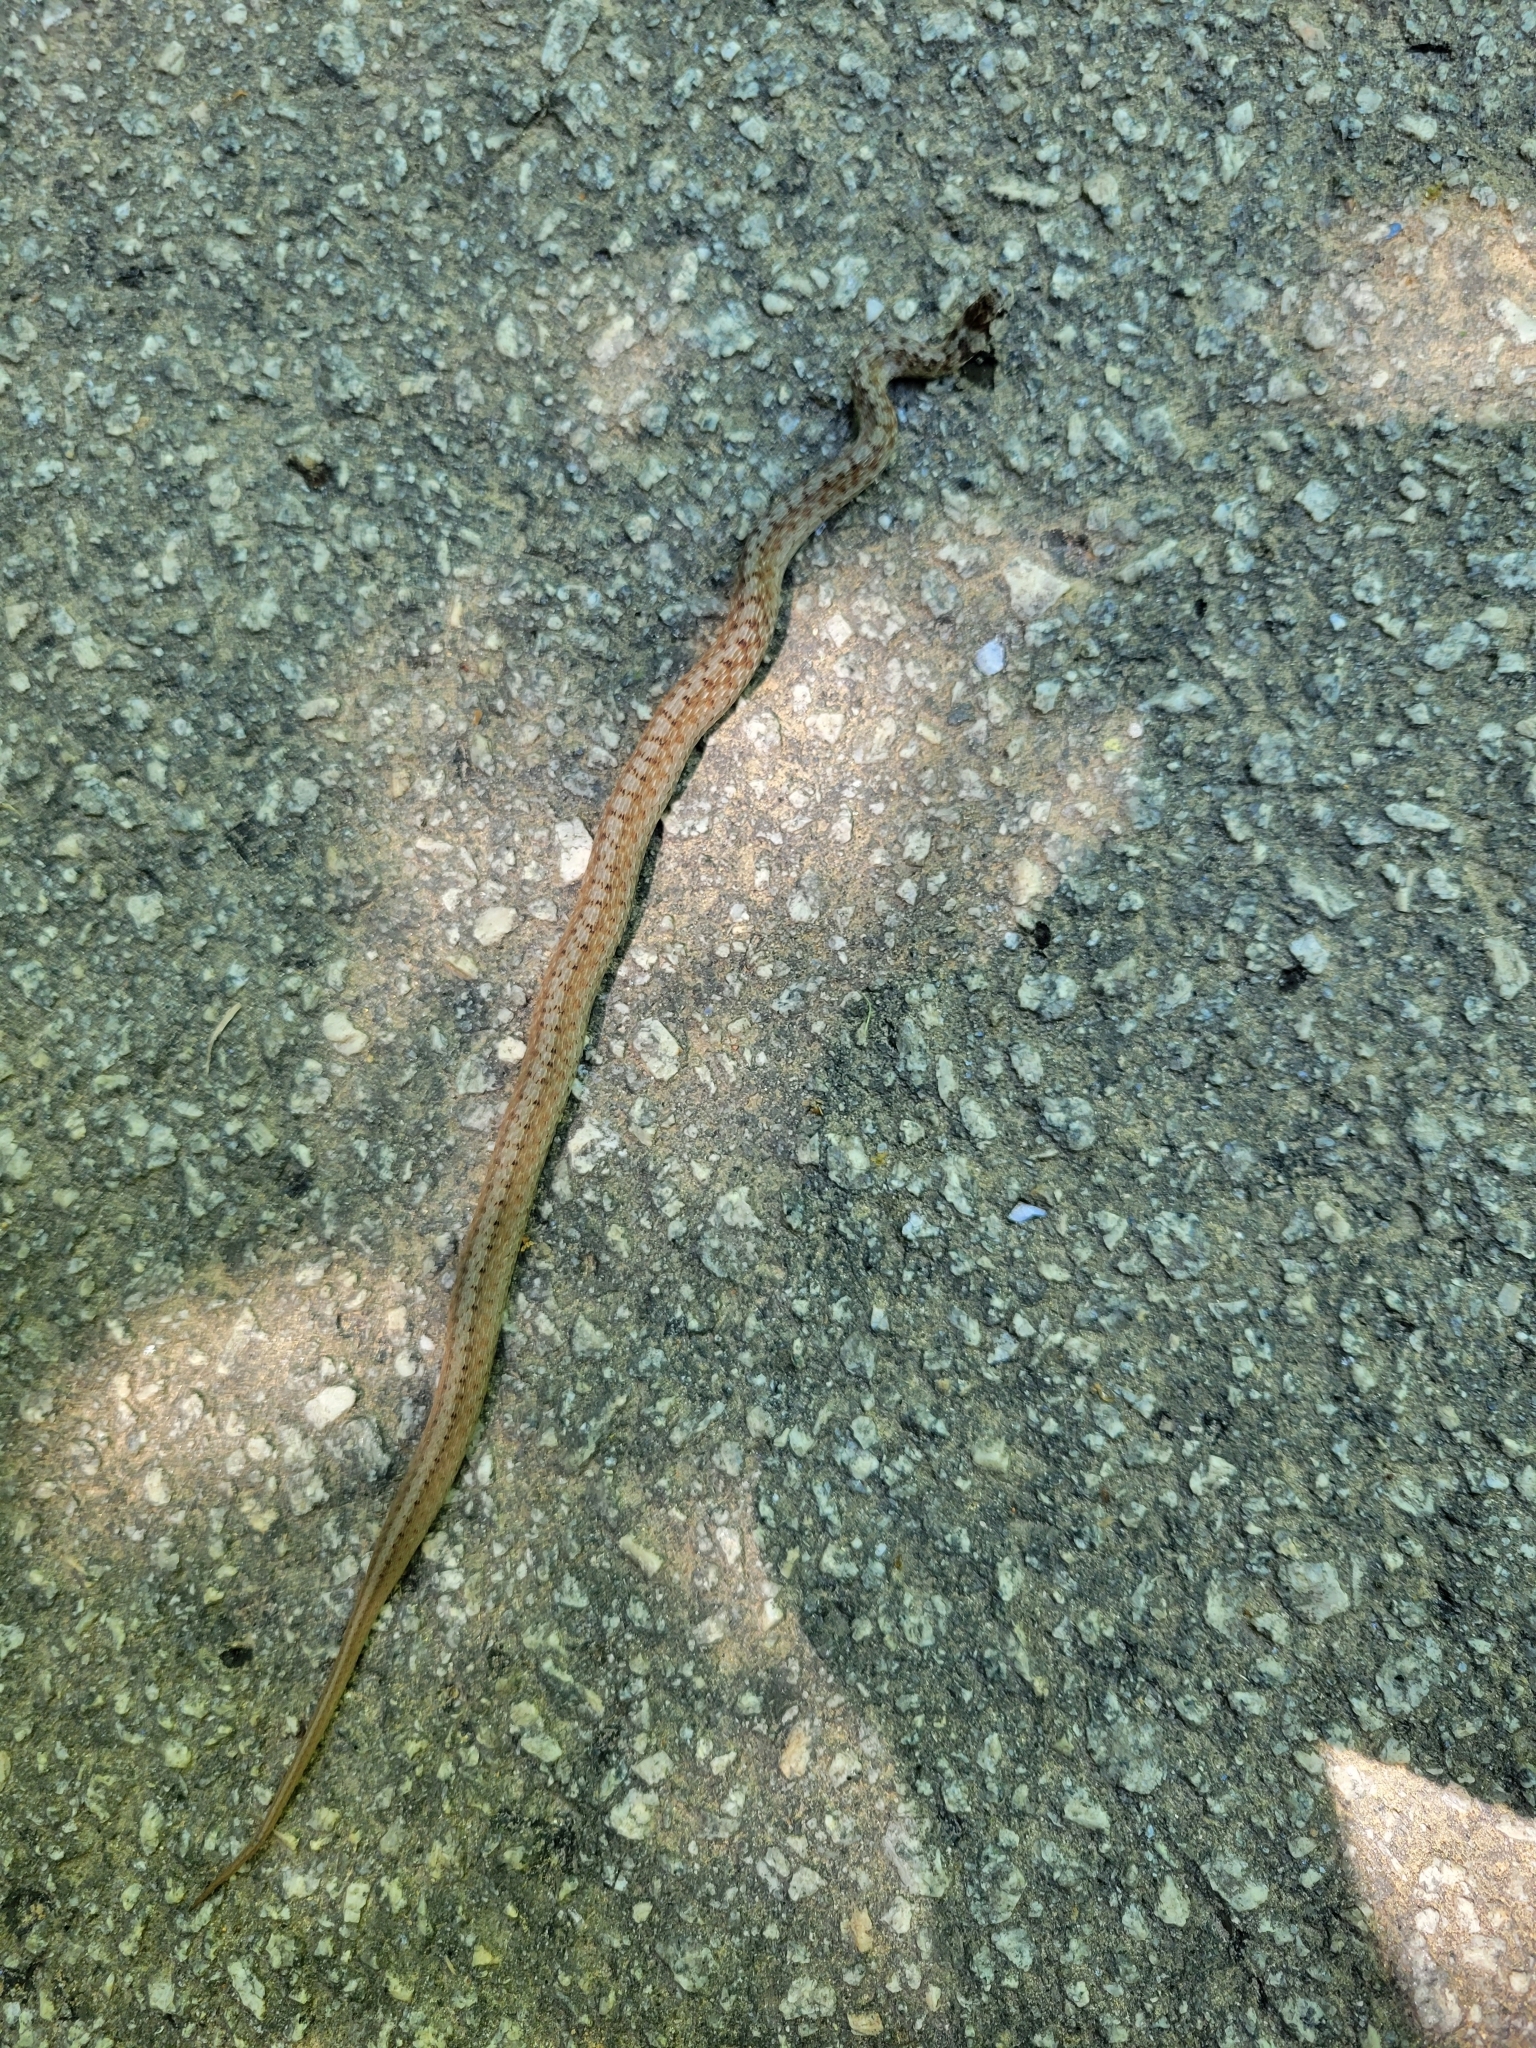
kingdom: Animalia
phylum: Chordata
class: Squamata
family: Colubridae
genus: Storeria
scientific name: Storeria dekayi
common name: (dekay’s) brown snake
